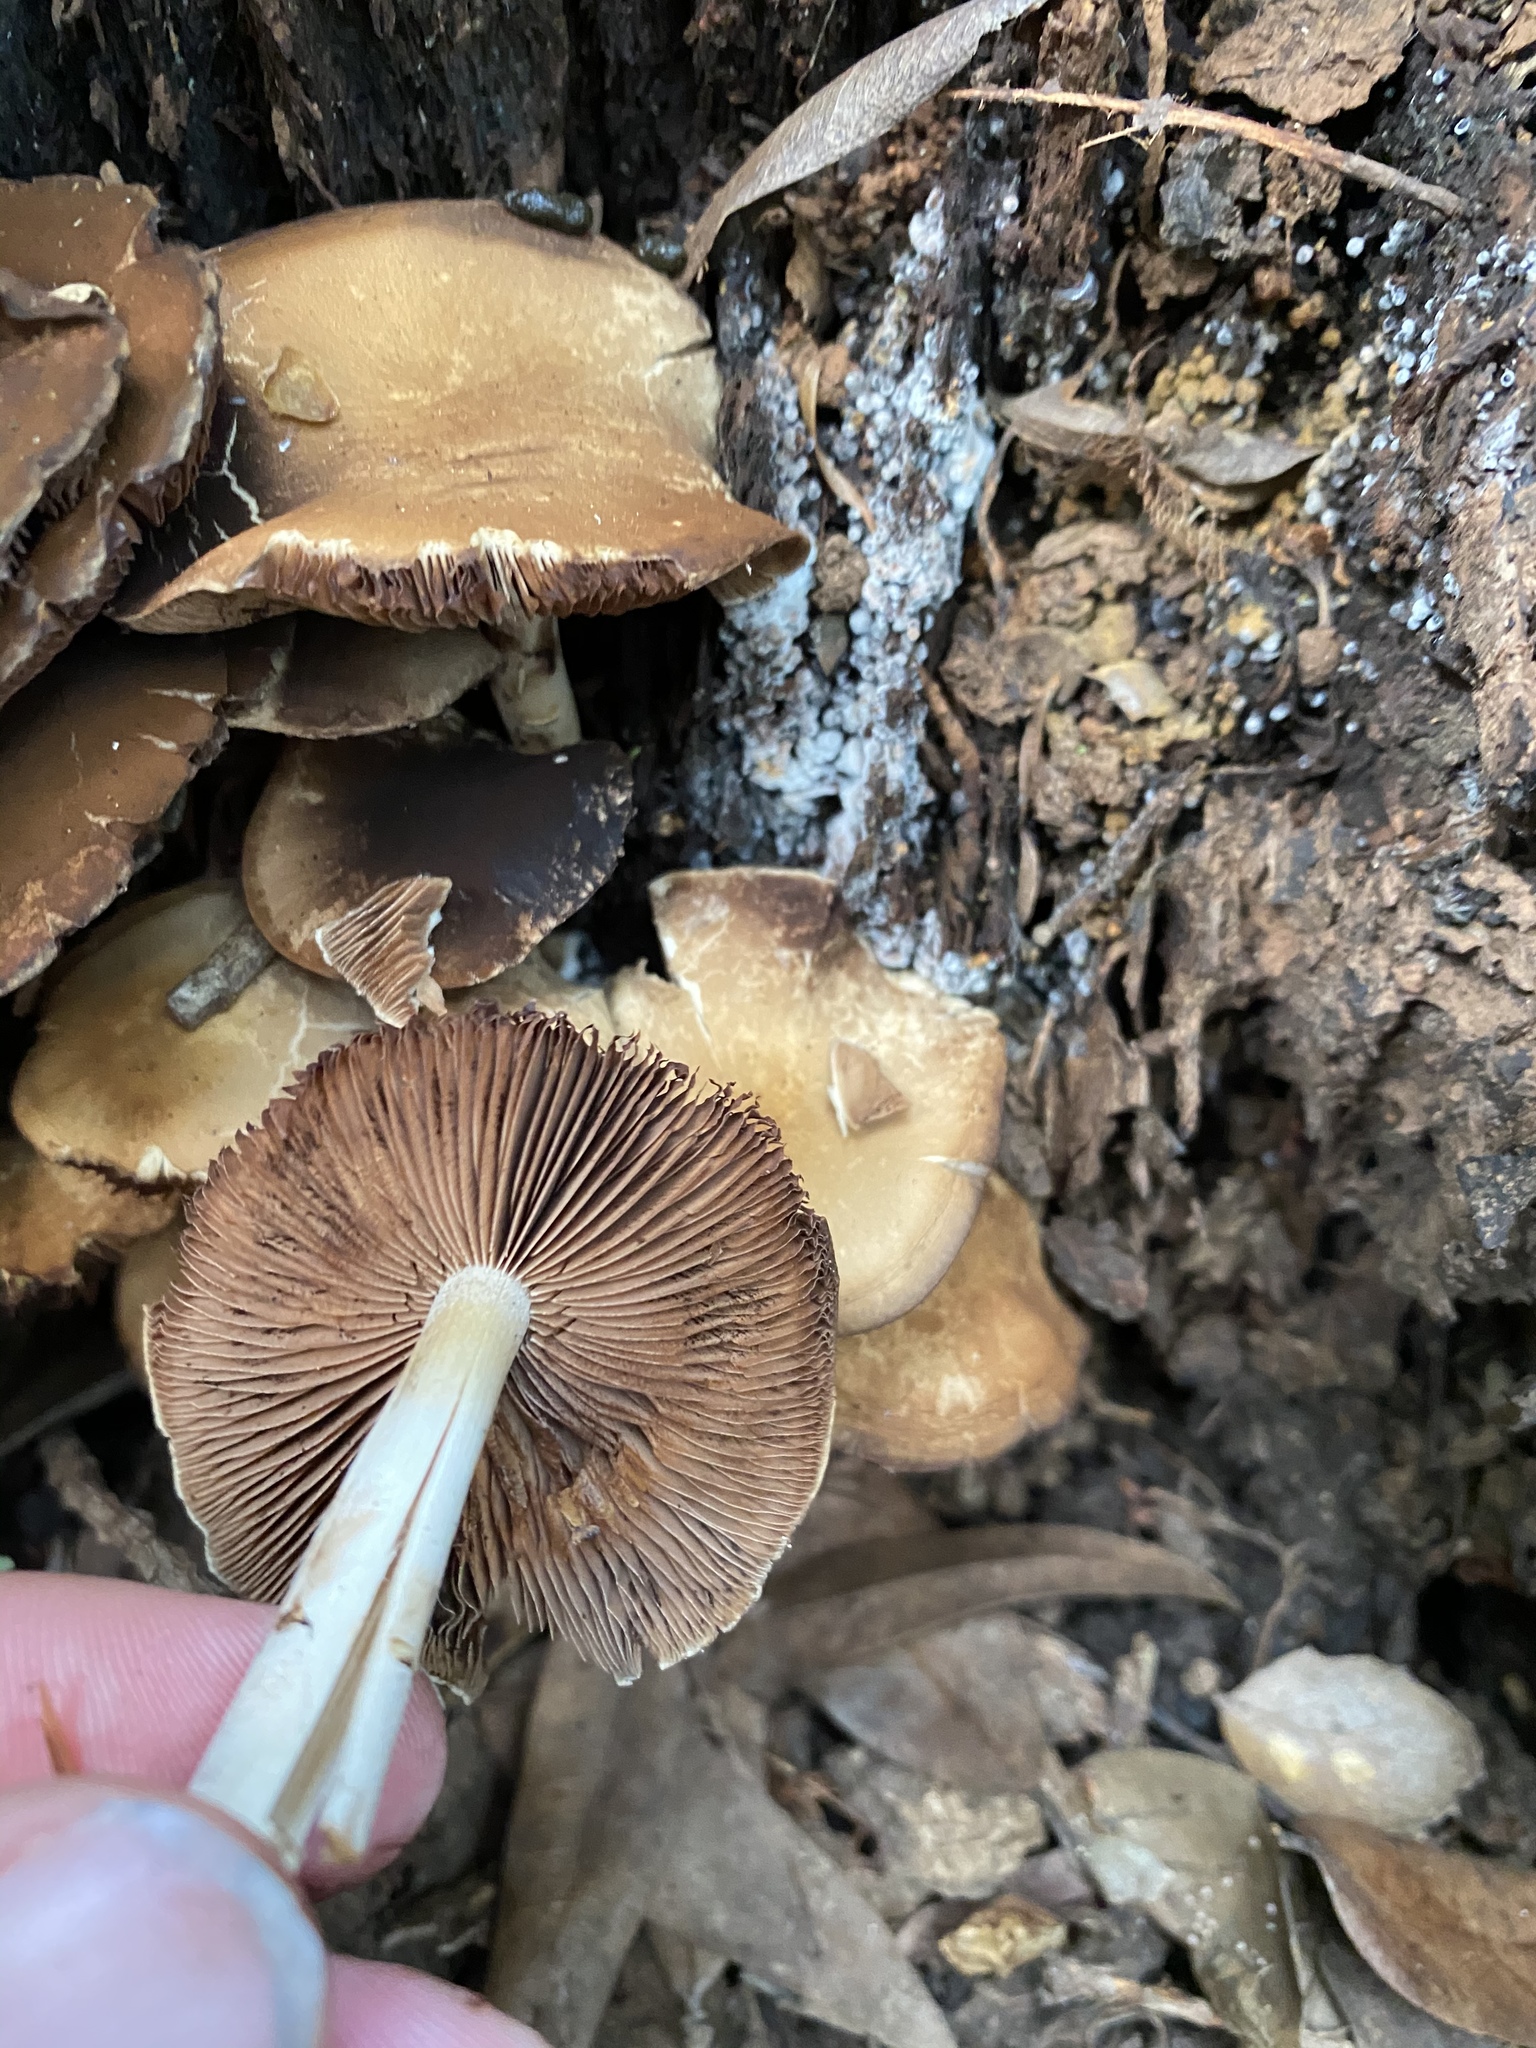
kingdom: Fungi
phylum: Basidiomycota
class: Agaricomycetes
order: Agaricales
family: Psathyrellaceae
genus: Psathyrella
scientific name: Psathyrella piluliformis
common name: Common stump brittlestem
